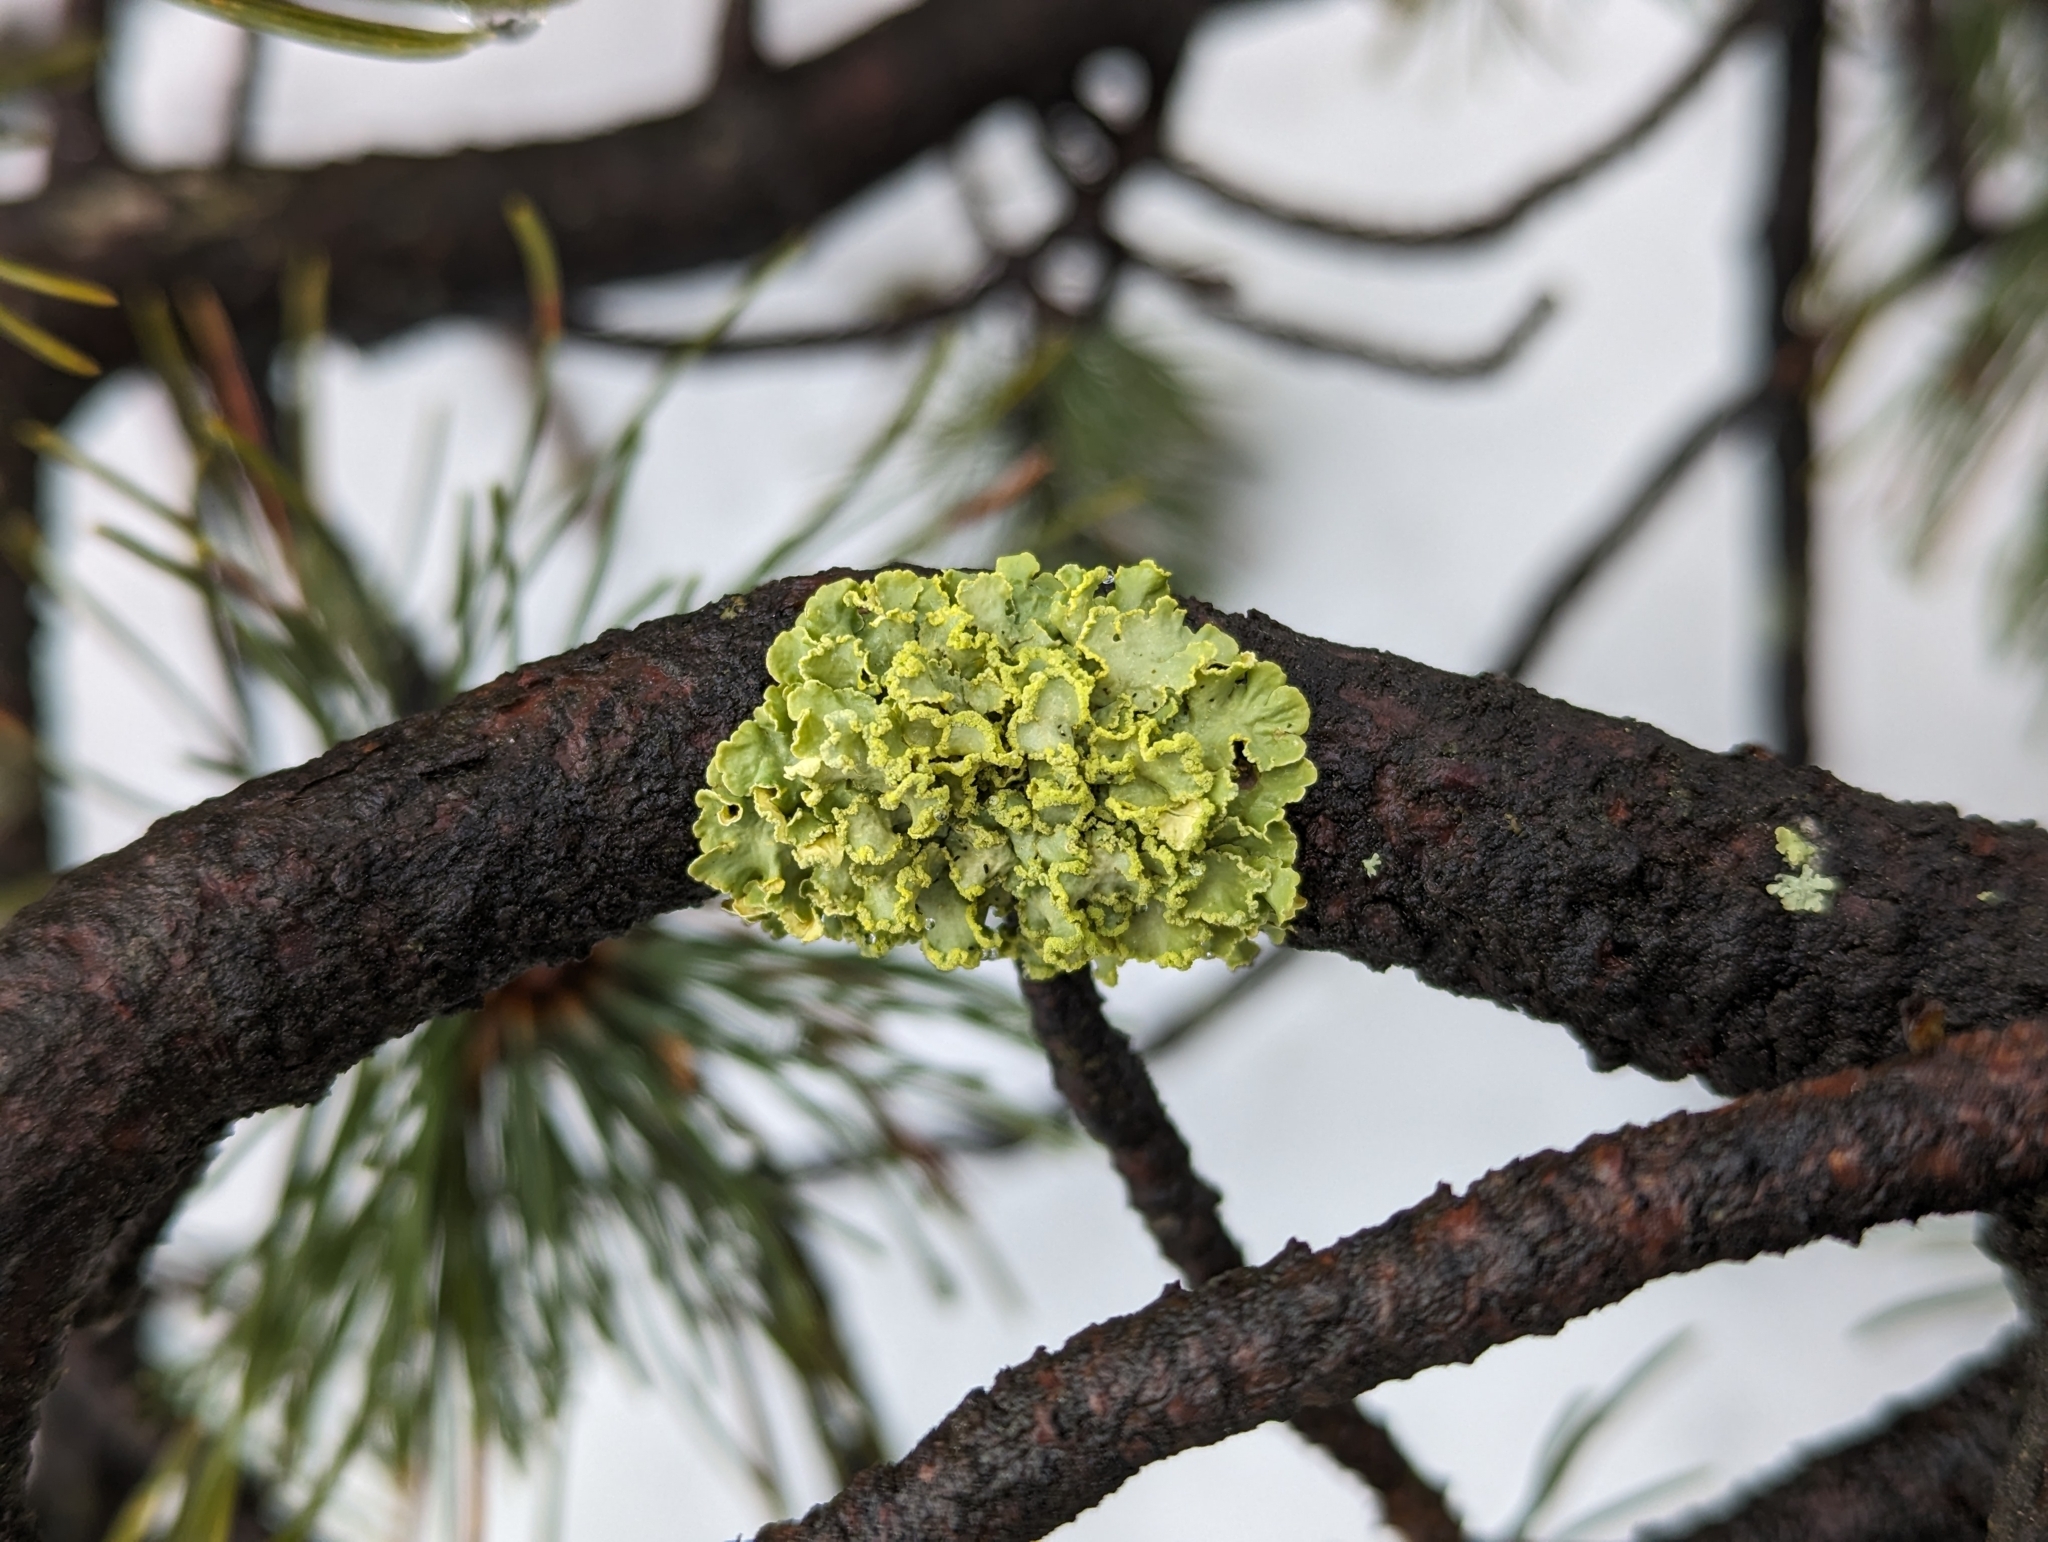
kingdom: Fungi
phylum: Ascomycota
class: Lecanoromycetes
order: Lecanorales
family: Parmeliaceae
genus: Vulpicida
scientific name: Vulpicida pinastri
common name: Powdered sunshine lichen
